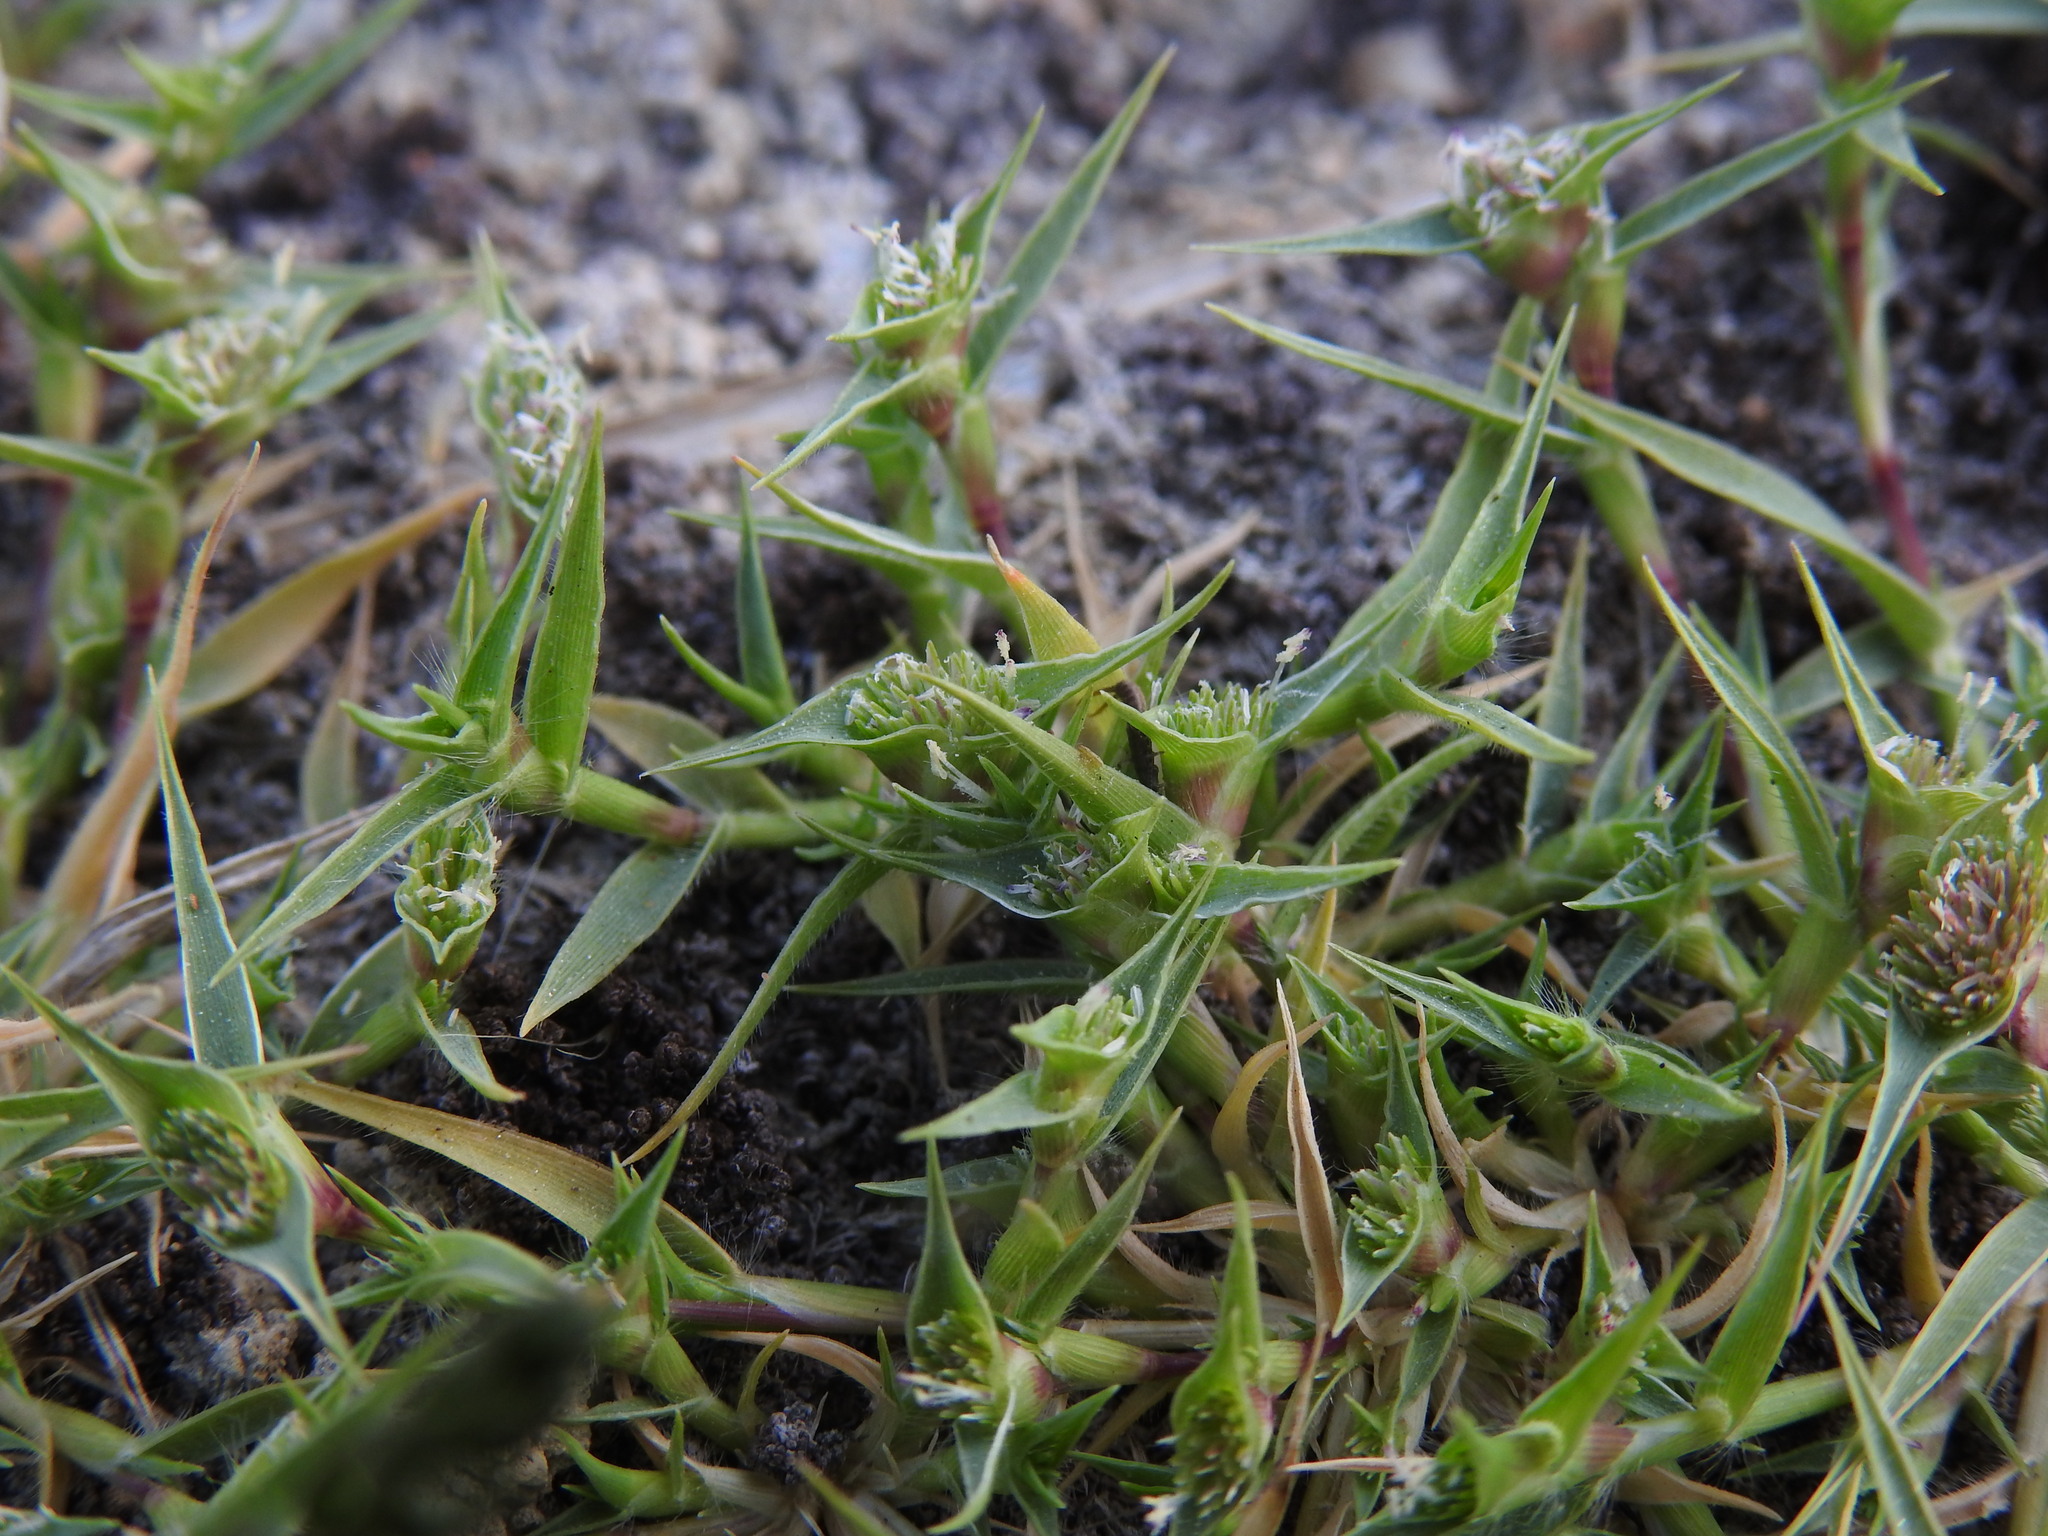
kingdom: Plantae
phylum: Tracheophyta
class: Liliopsida
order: Poales
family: Poaceae
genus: Sporobolus
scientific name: Sporobolus aculeatus
